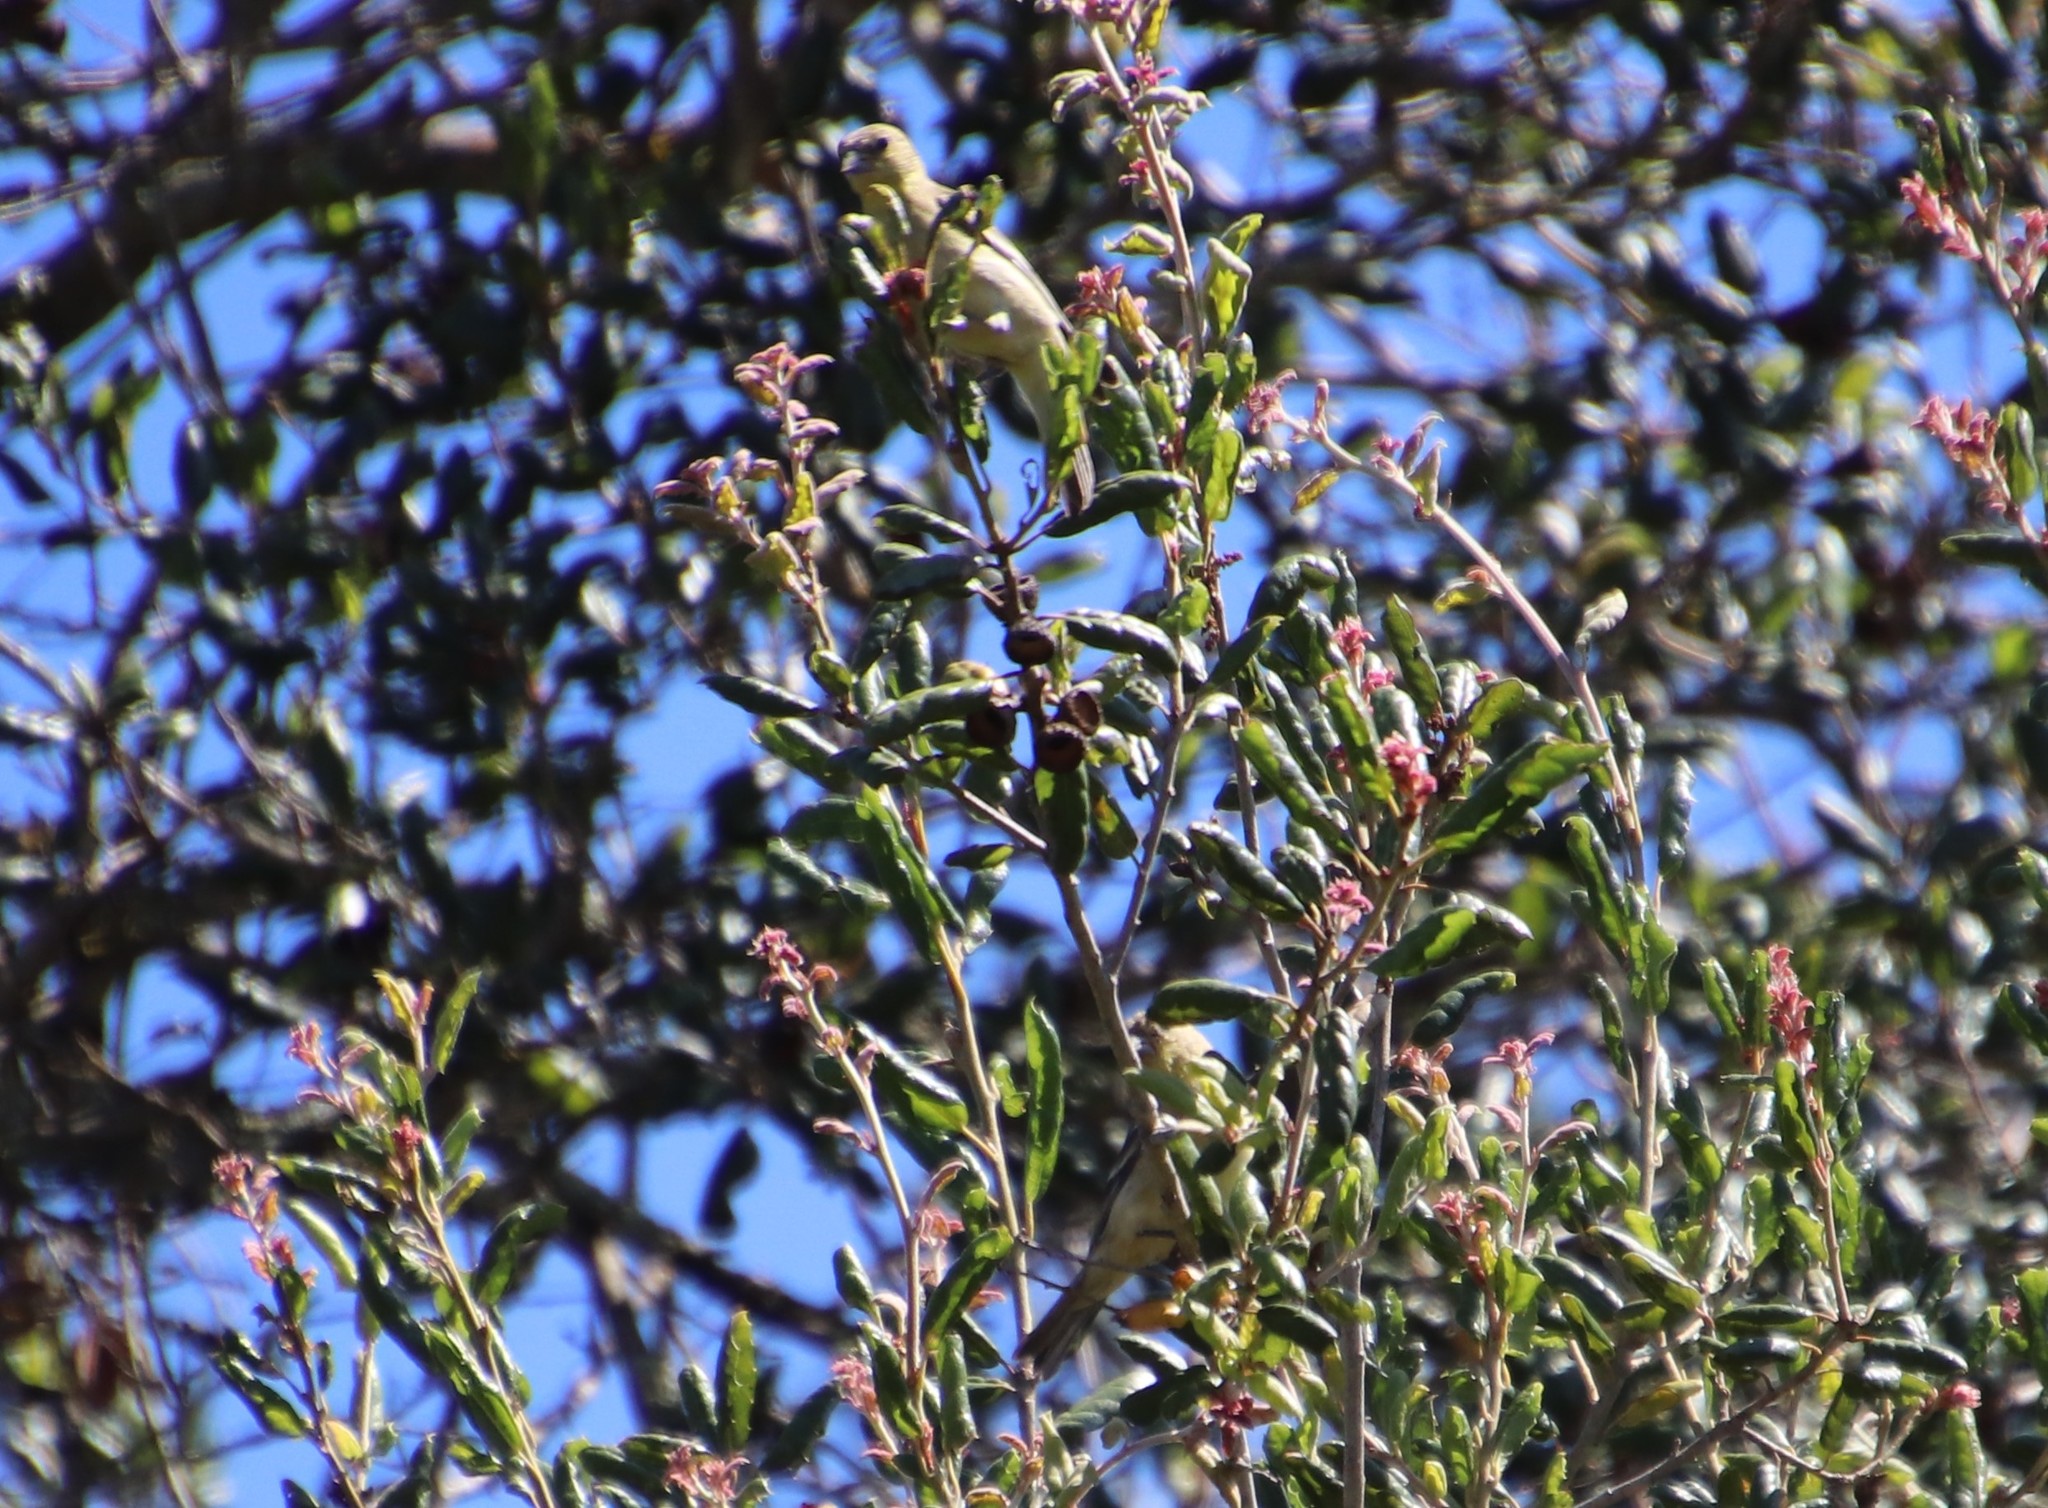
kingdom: Animalia
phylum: Chordata
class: Aves
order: Passeriformes
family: Fringillidae
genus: Spinus
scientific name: Spinus psaltria
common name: Lesser goldfinch
